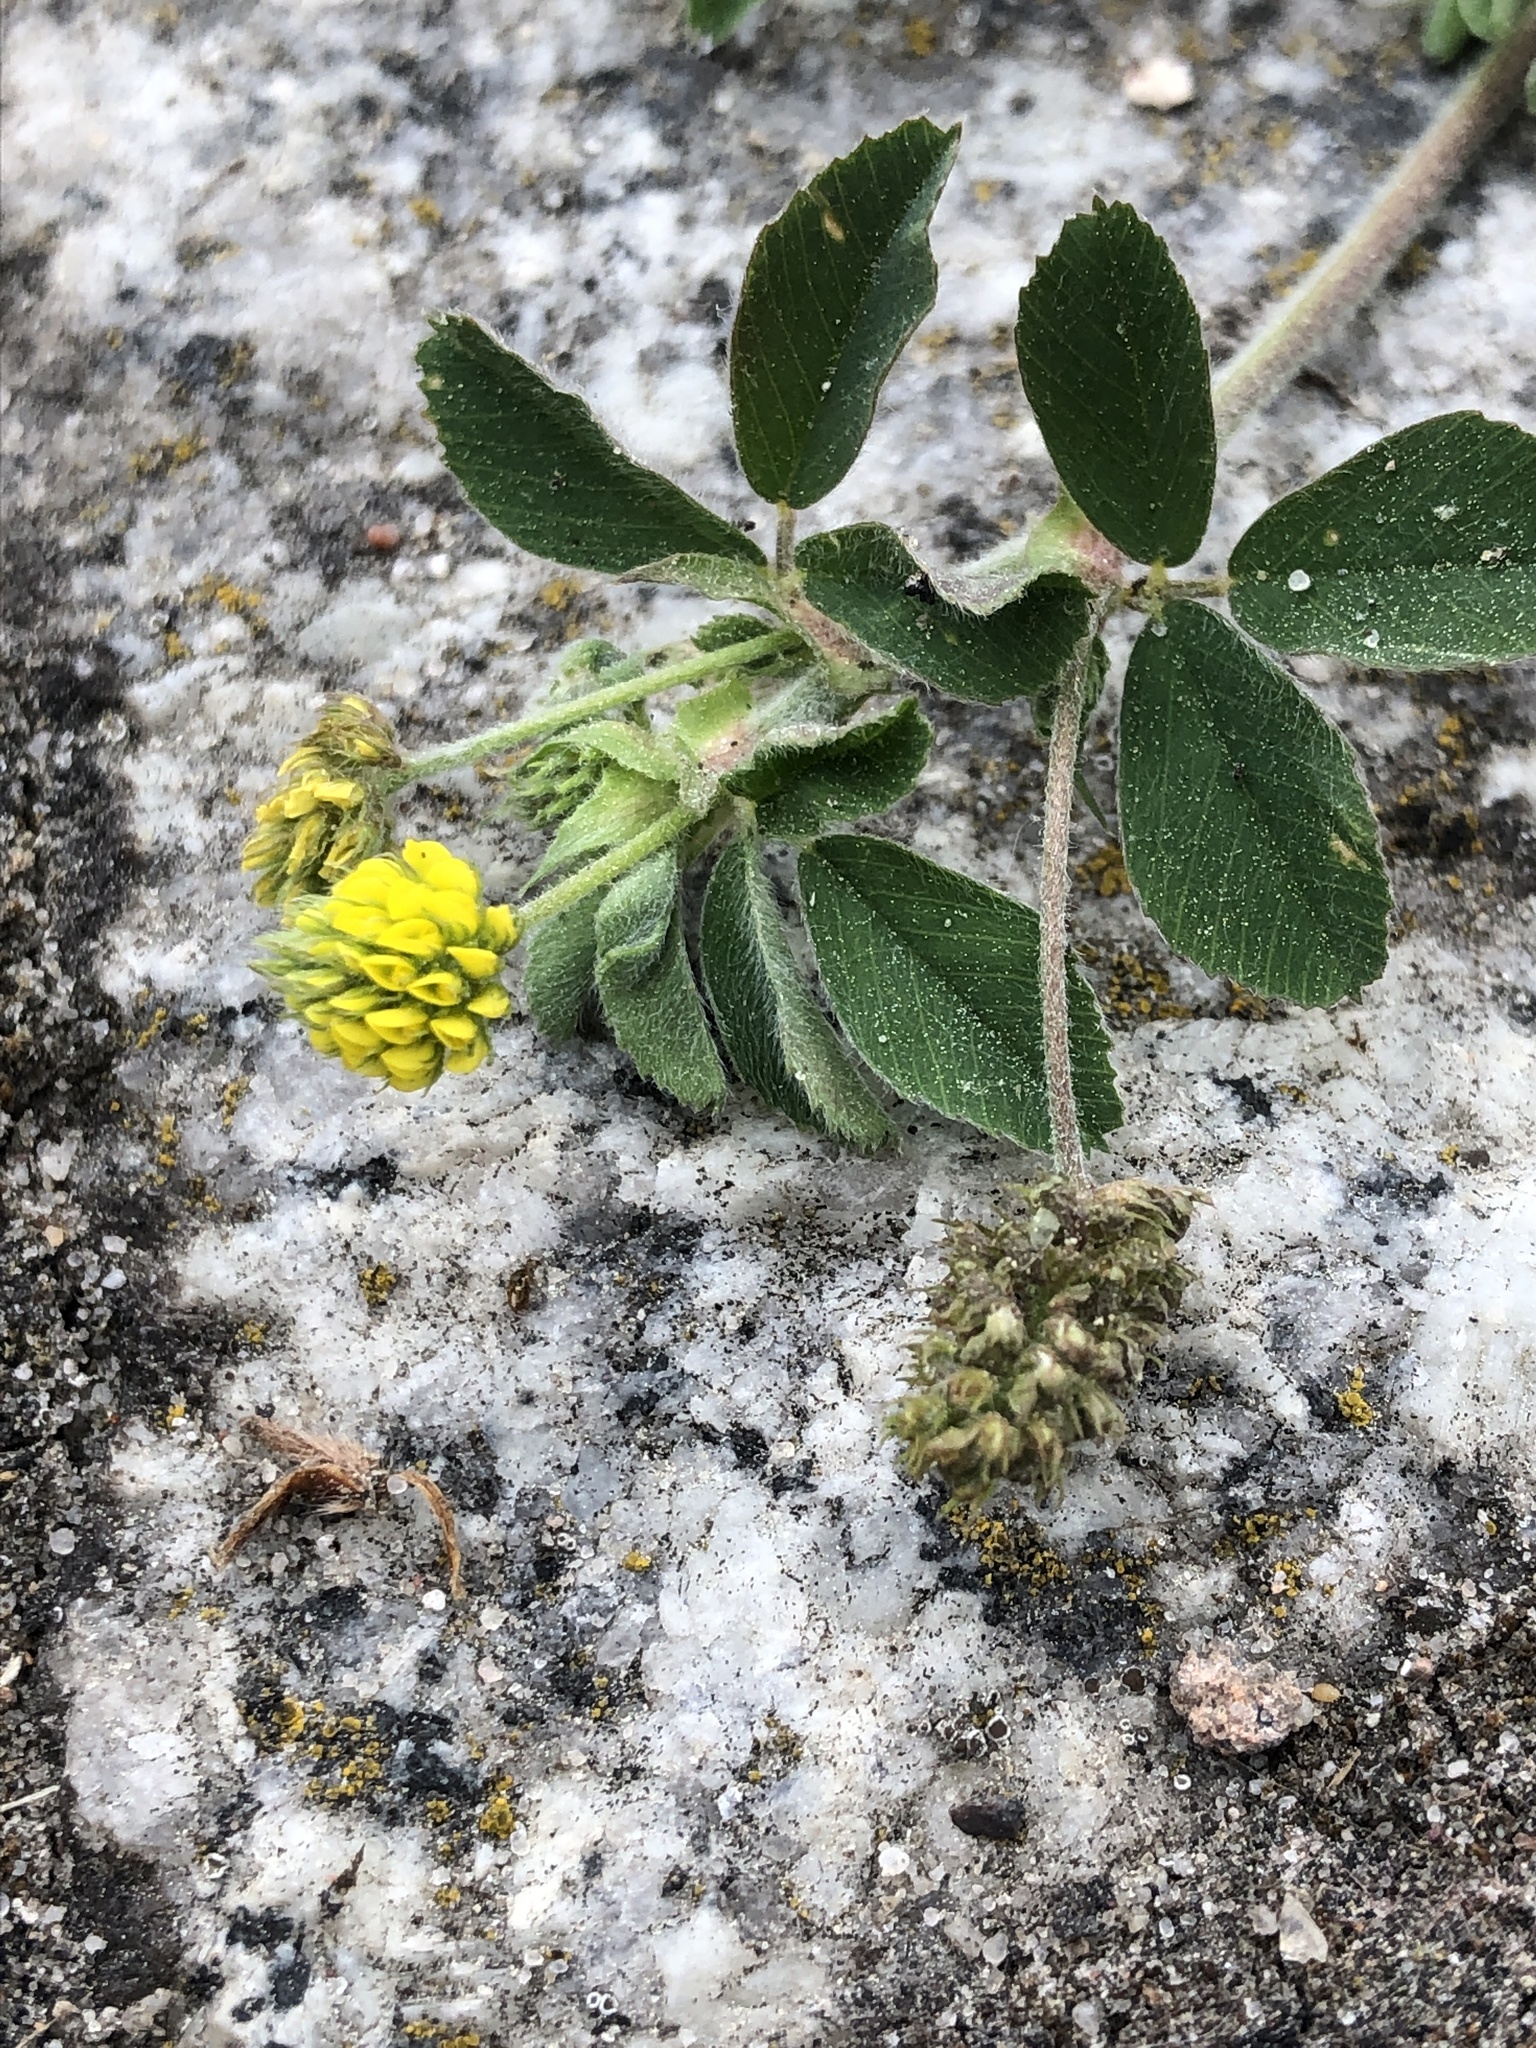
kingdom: Plantae
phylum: Tracheophyta
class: Magnoliopsida
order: Fabales
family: Fabaceae
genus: Medicago
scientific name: Medicago lupulina
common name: Black medick
